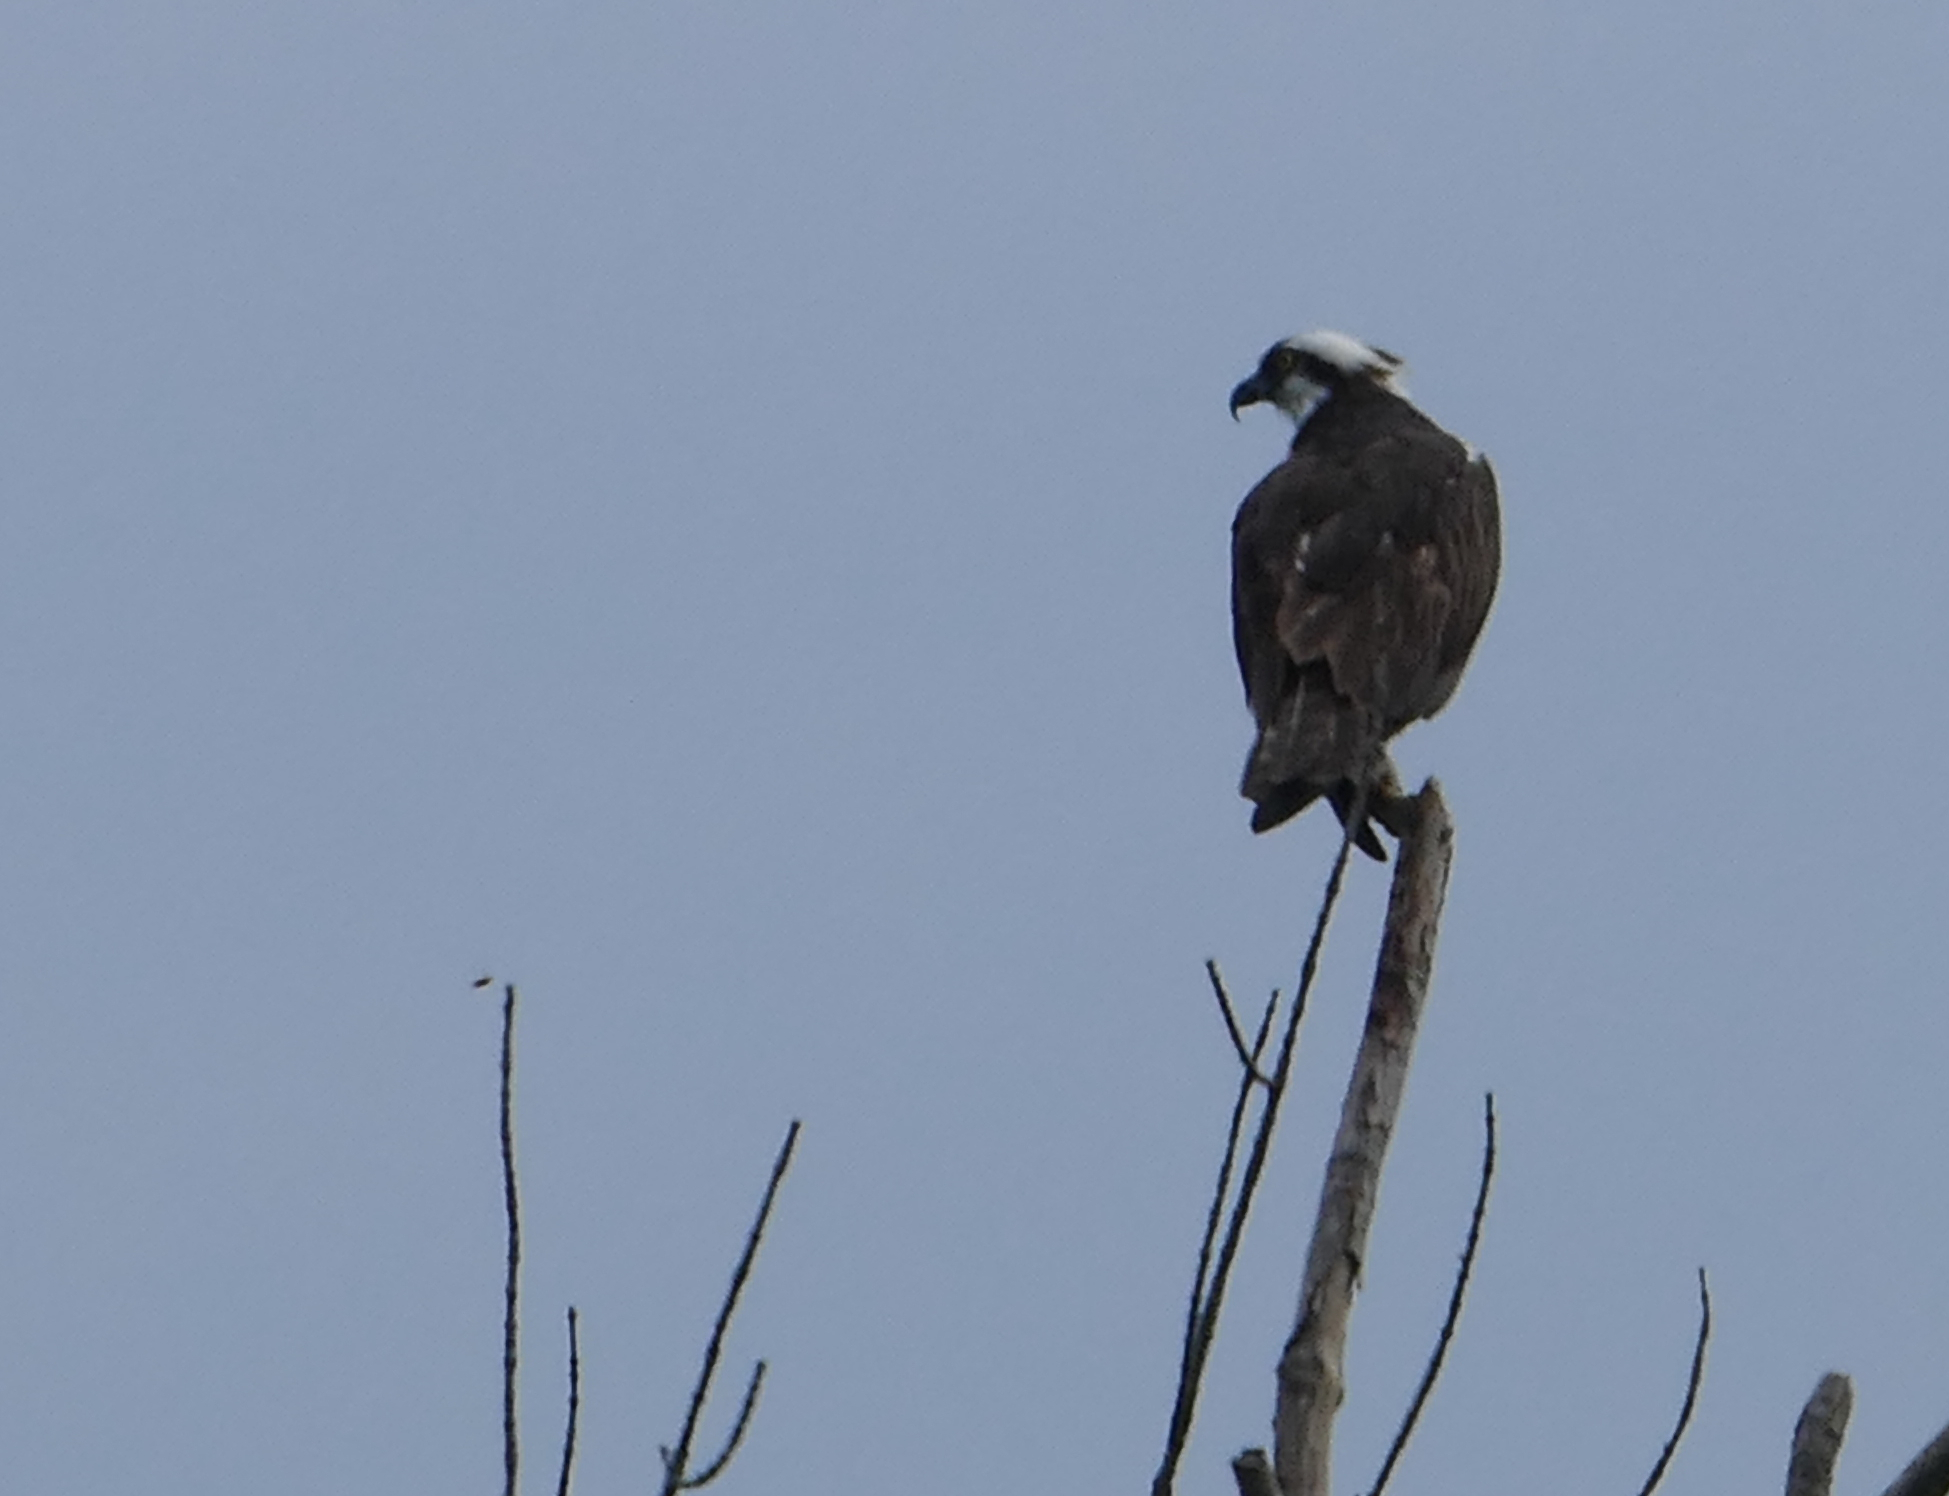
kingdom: Animalia
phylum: Chordata
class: Aves
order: Accipitriformes
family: Pandionidae
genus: Pandion
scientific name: Pandion haliaetus
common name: Osprey
